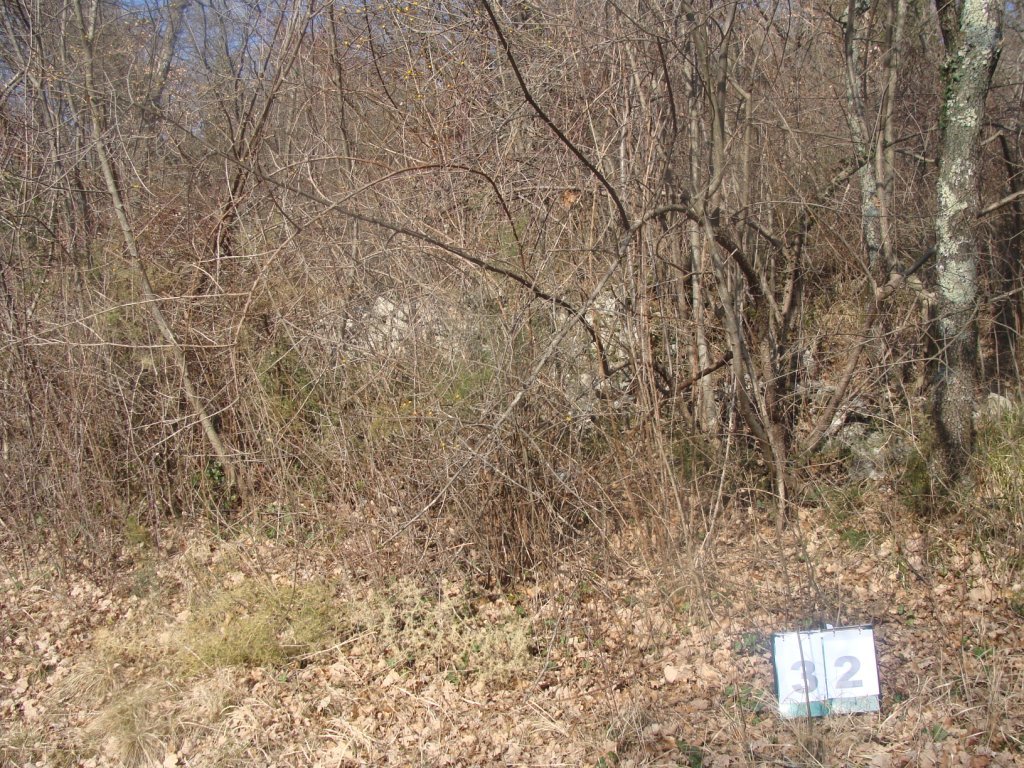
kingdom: Plantae
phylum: Tracheophyta
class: Magnoliopsida
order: Cornales
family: Cornaceae
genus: Cornus
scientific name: Cornus mas
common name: Cornelian-cherry
